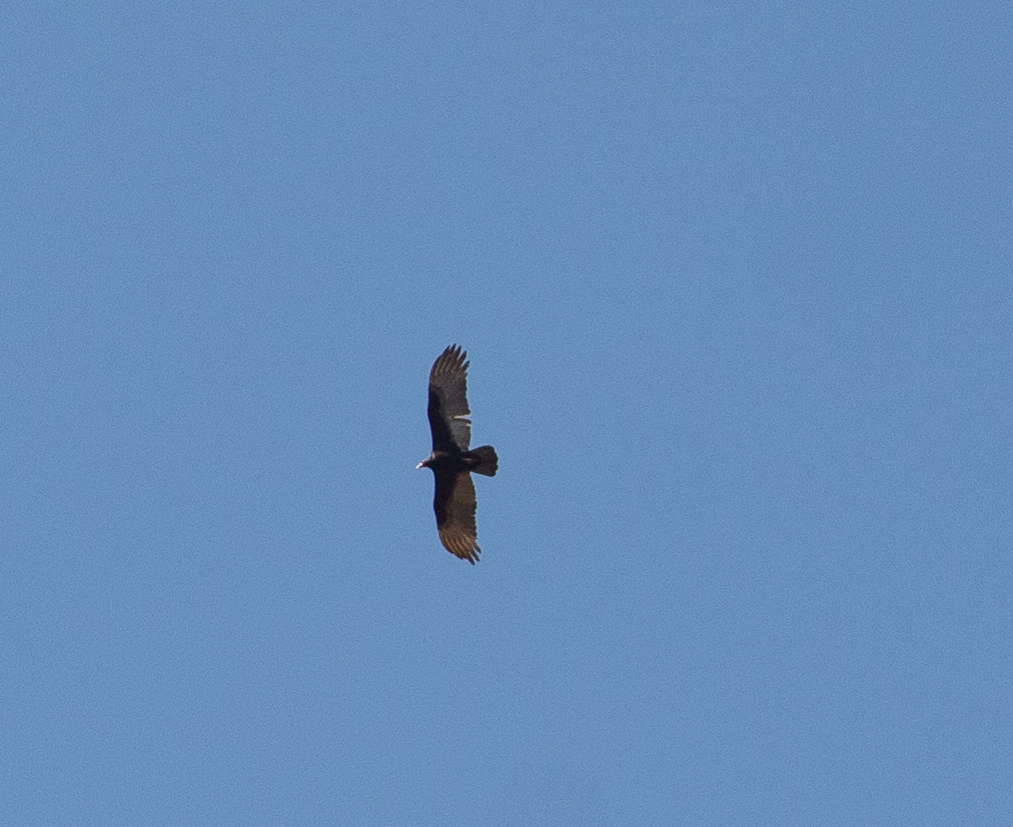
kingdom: Animalia
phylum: Chordata
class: Aves
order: Accipitriformes
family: Cathartidae
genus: Cathartes
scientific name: Cathartes aura
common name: Turkey vulture
